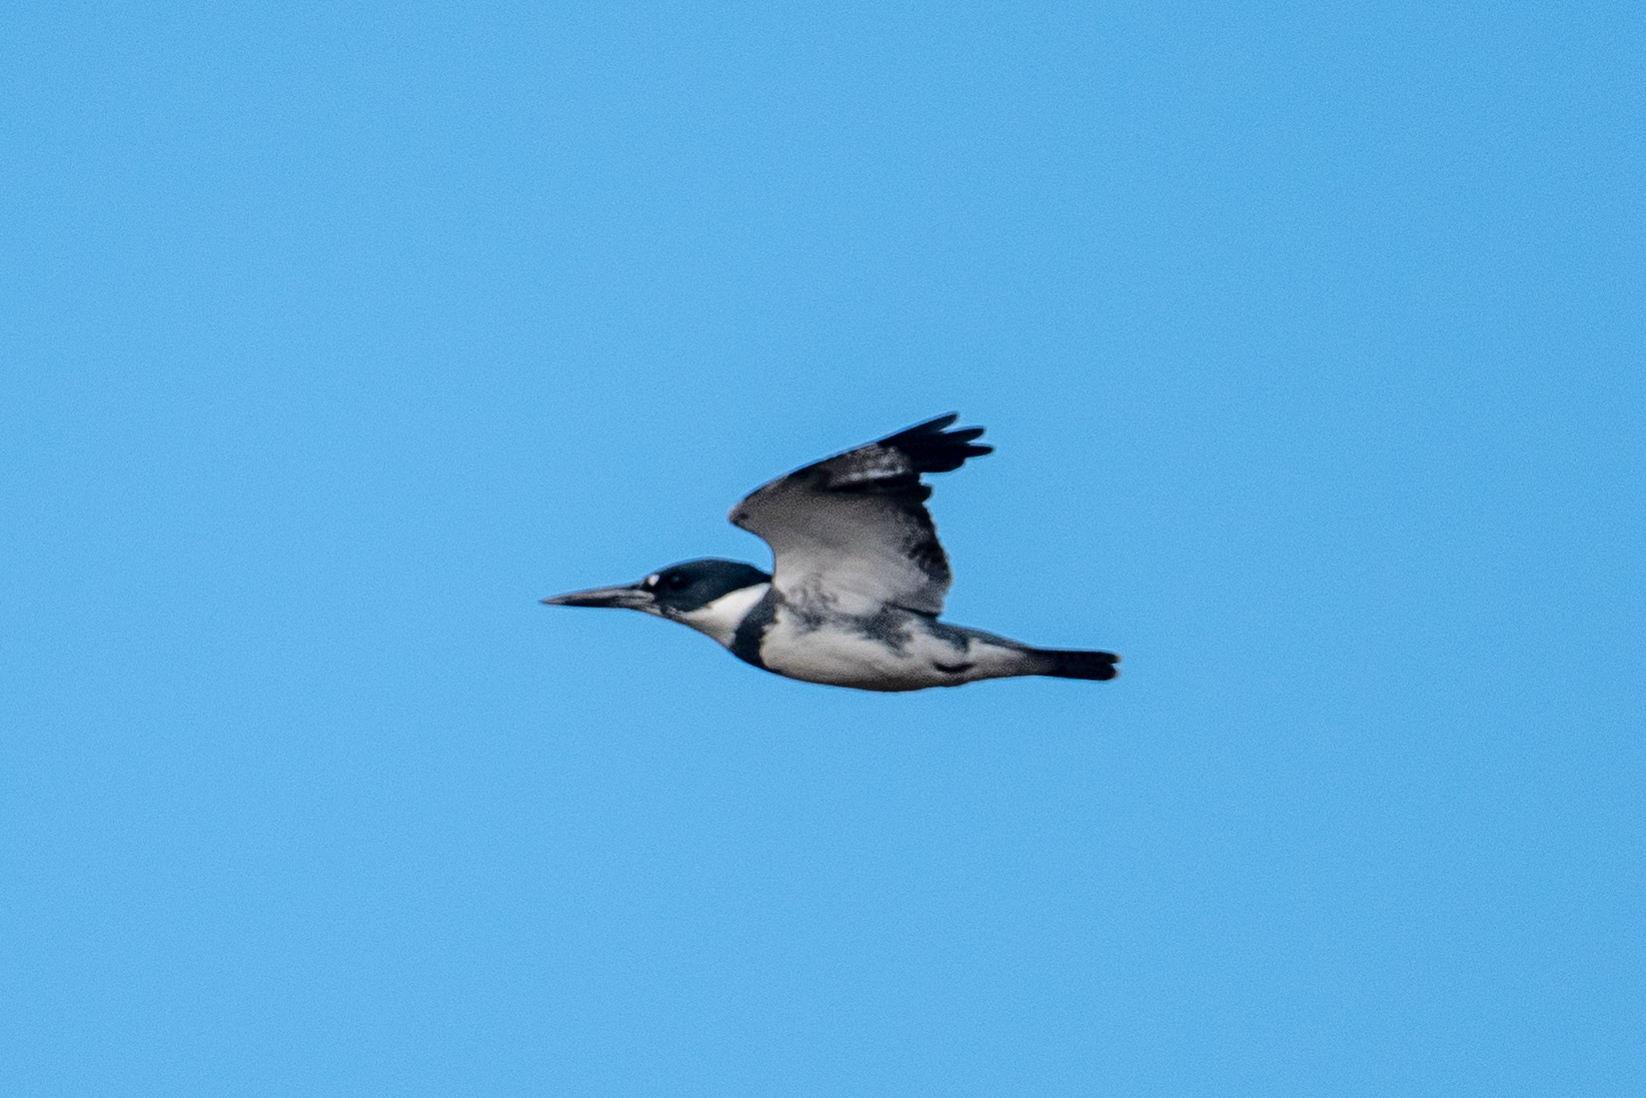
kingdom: Animalia
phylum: Chordata
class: Aves
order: Coraciiformes
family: Alcedinidae
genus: Megaceryle
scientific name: Megaceryle alcyon
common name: Belted kingfisher
